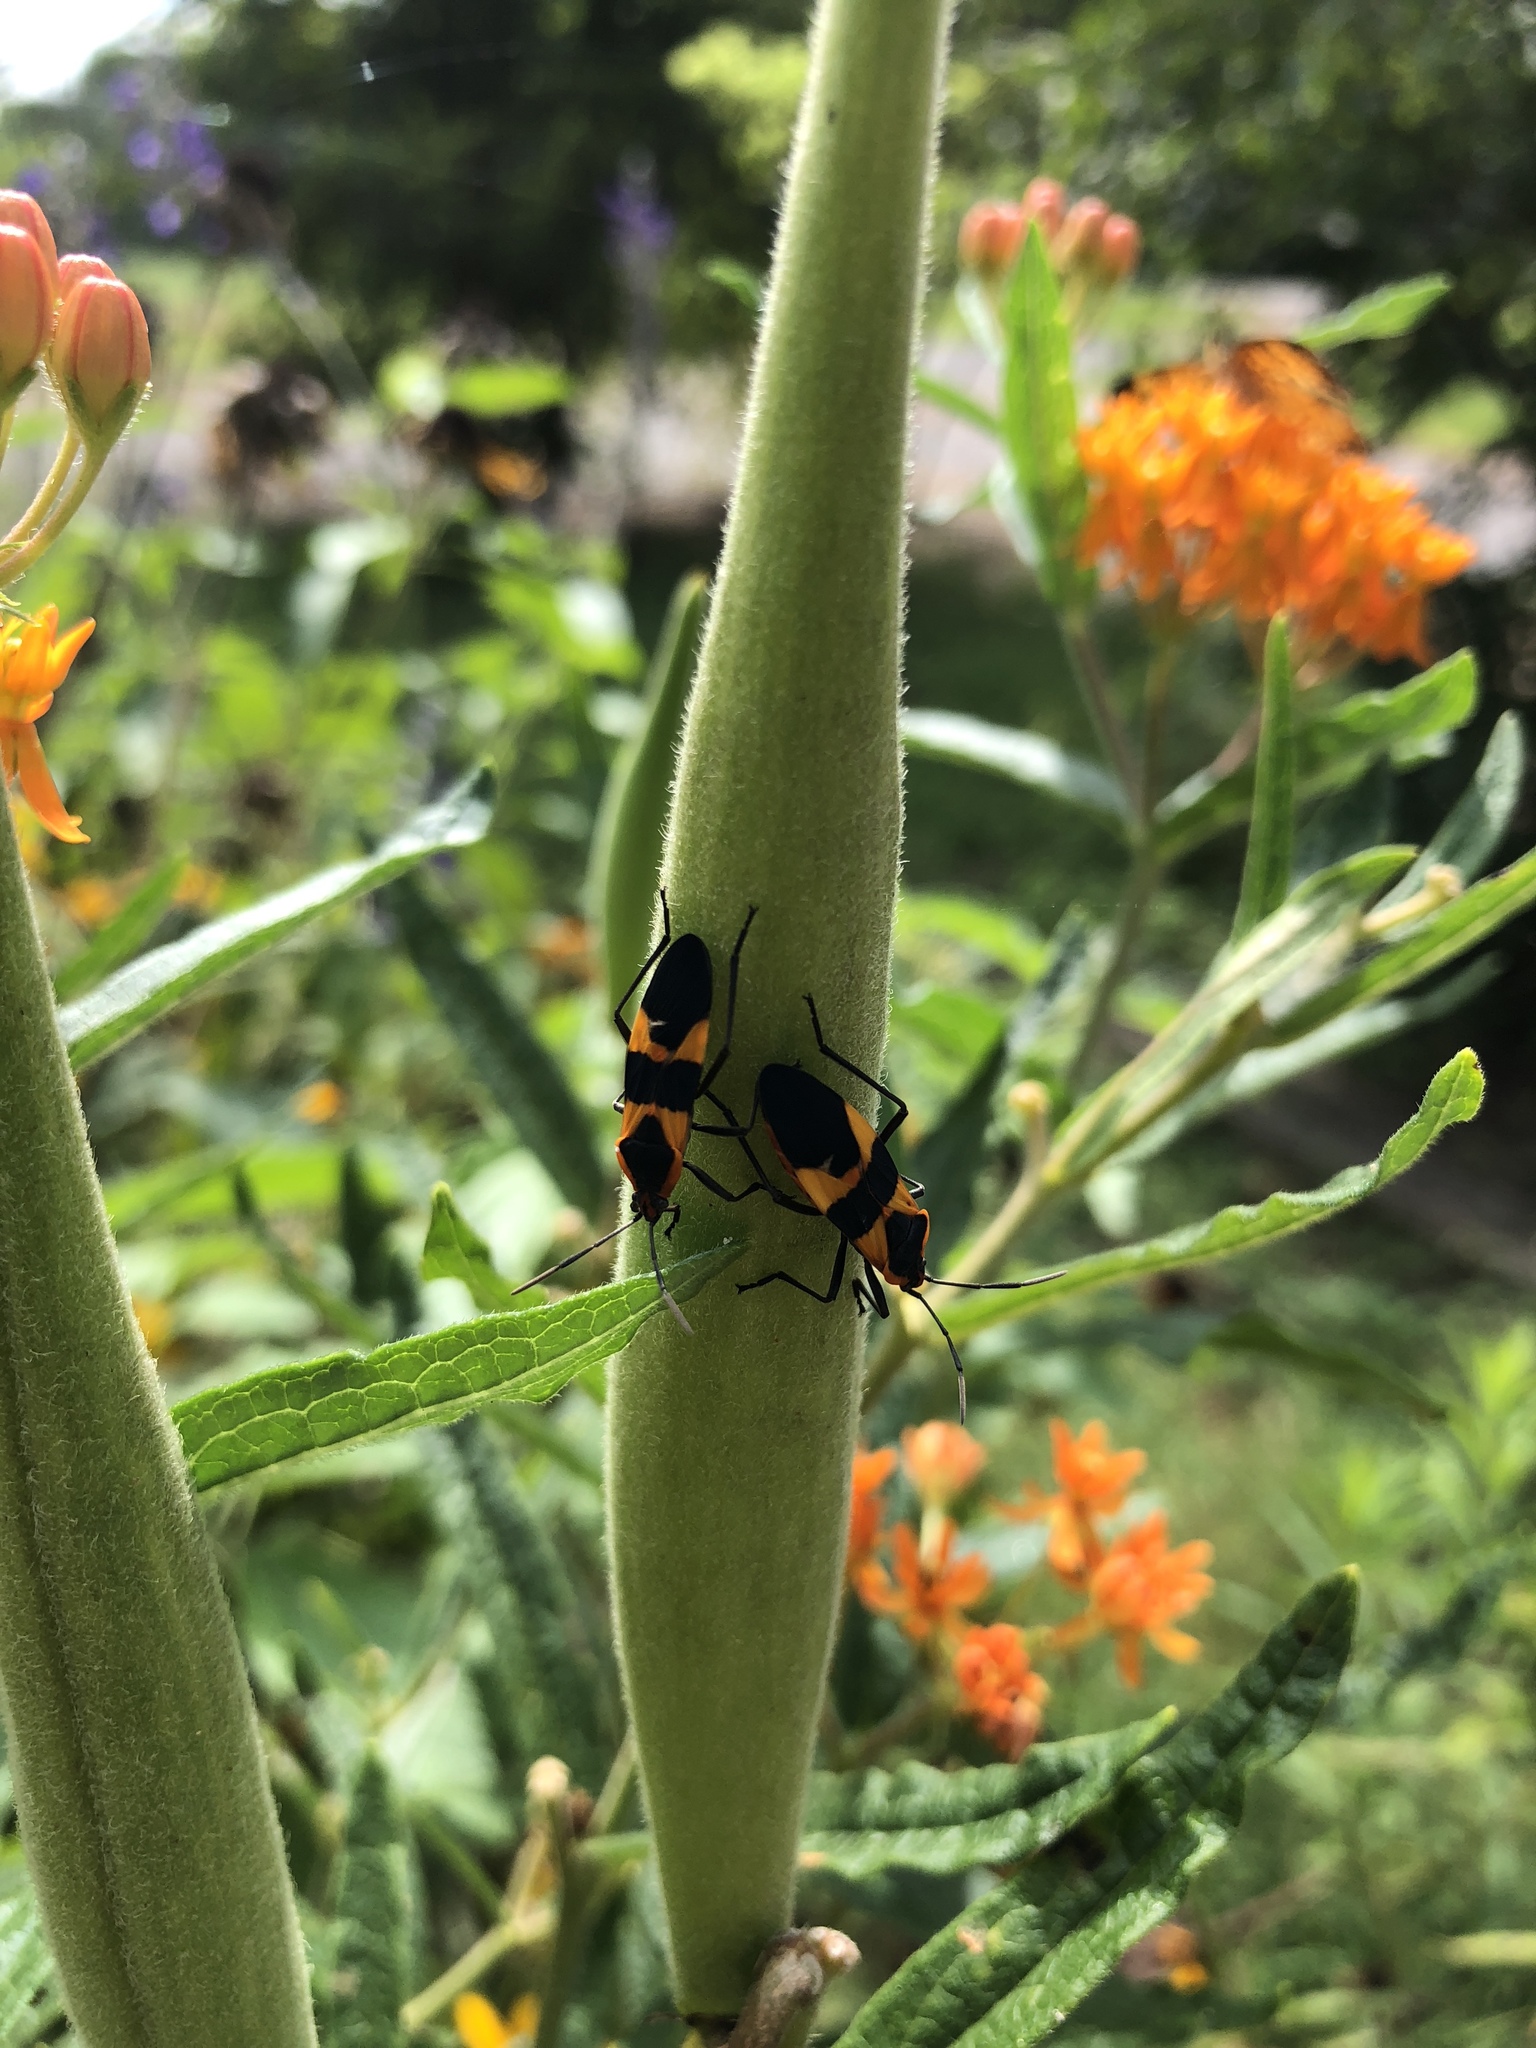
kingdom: Animalia
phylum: Arthropoda
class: Insecta
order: Hemiptera
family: Lygaeidae
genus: Oncopeltus
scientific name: Oncopeltus fasciatus
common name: Large milkweed bug
